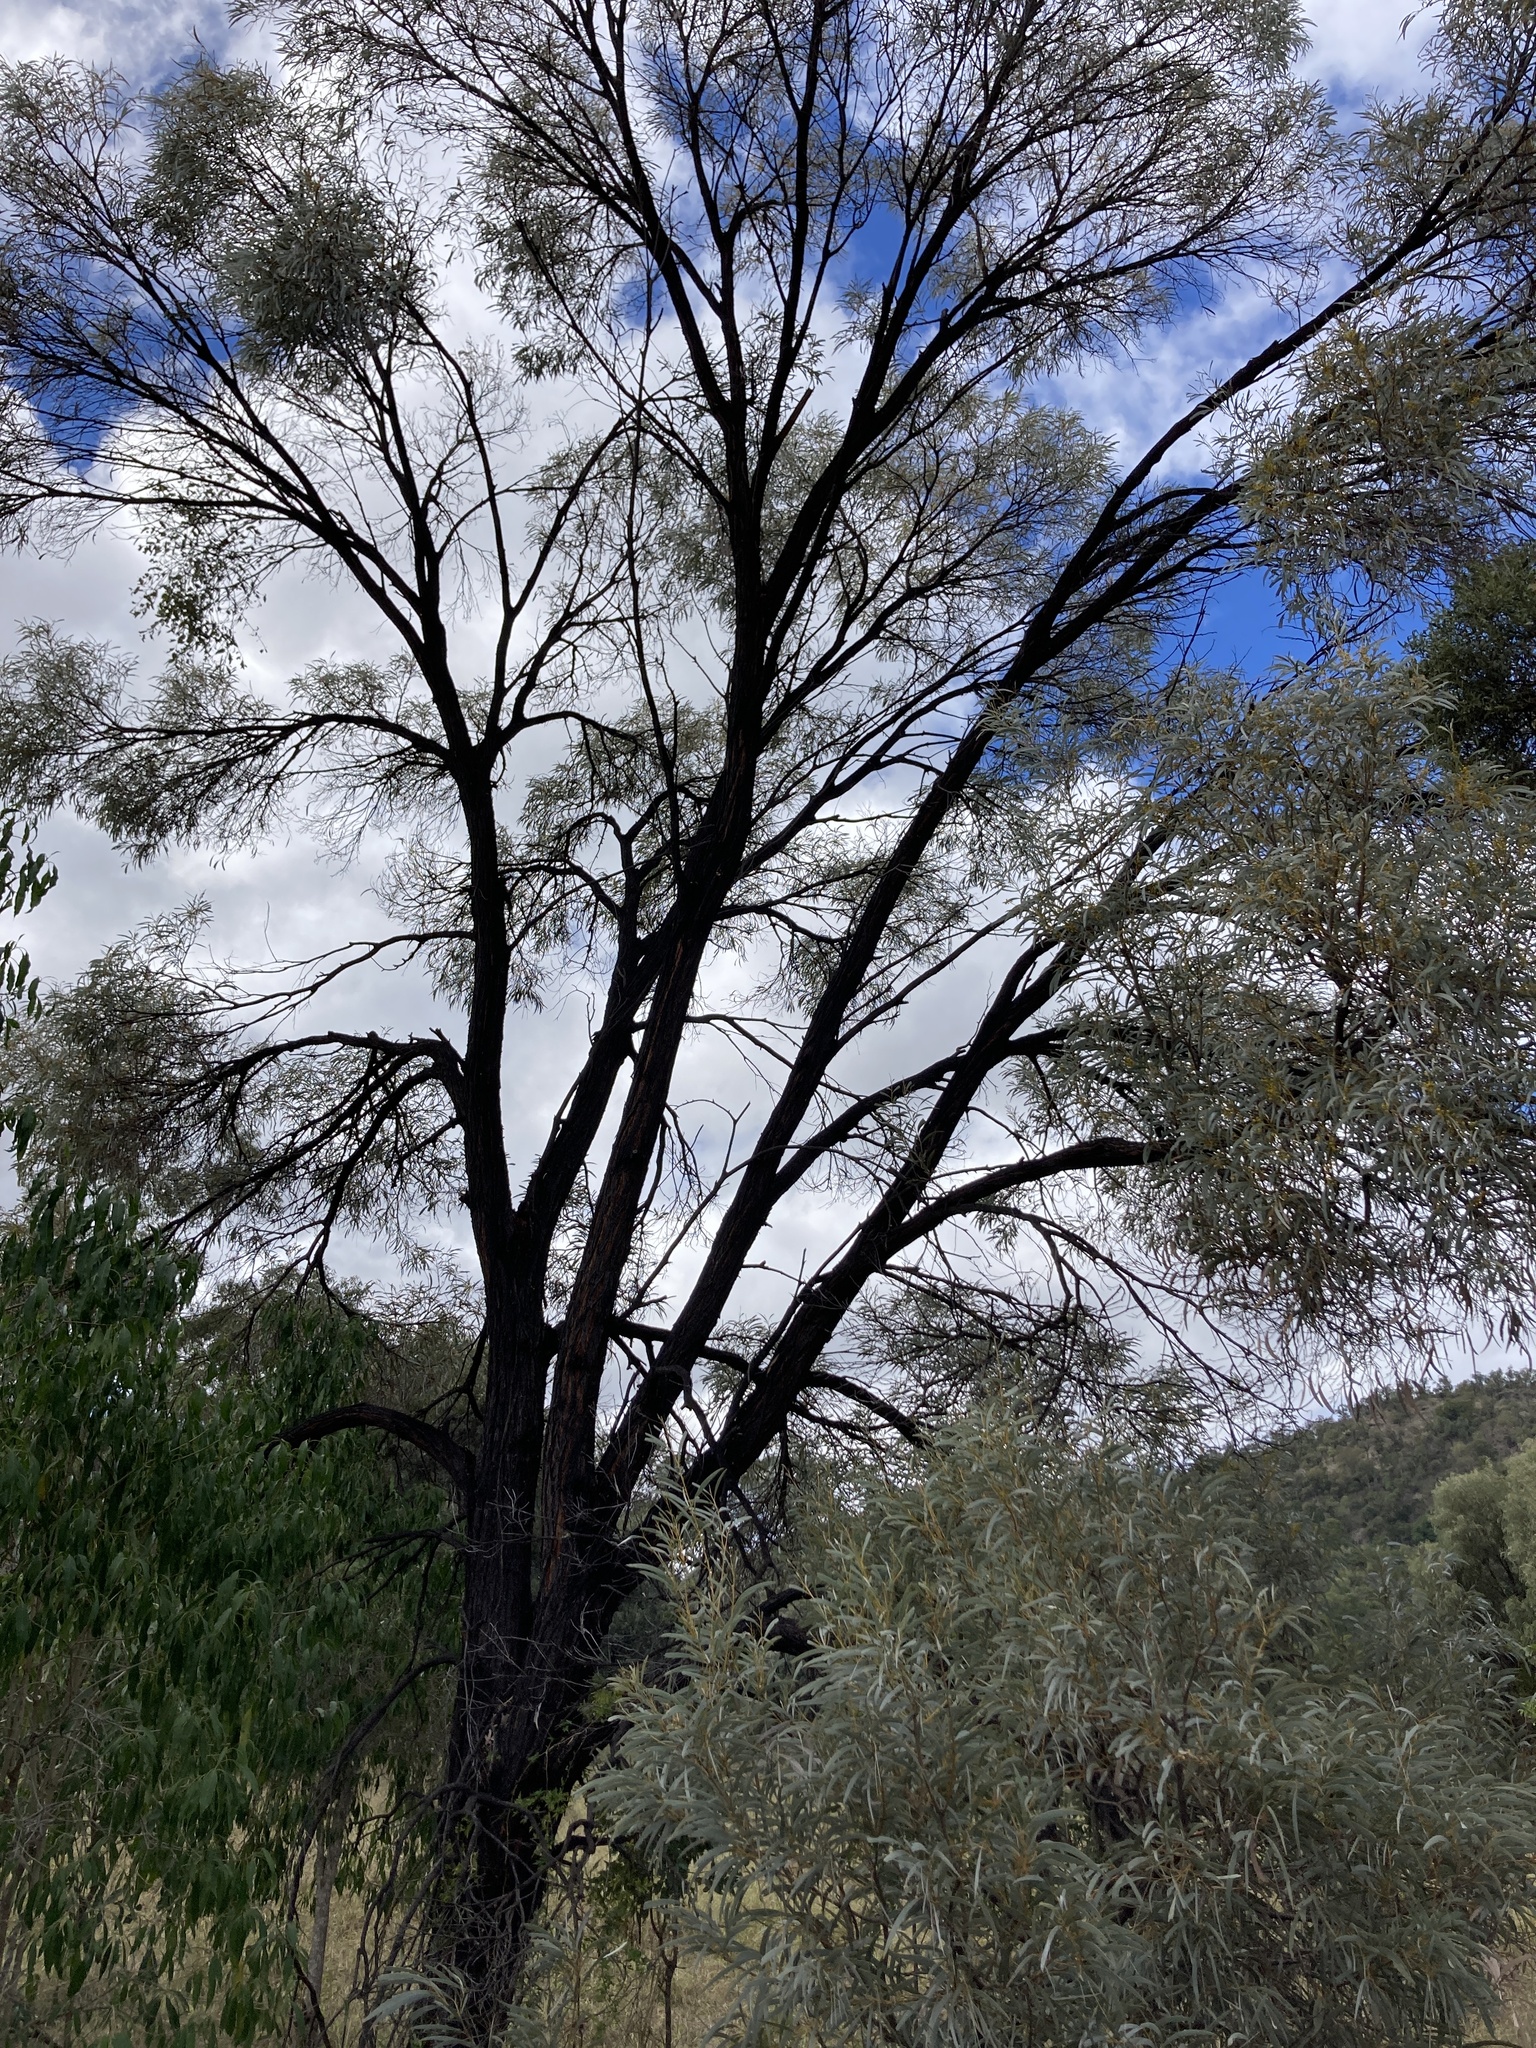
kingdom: Plantae
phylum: Tracheophyta
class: Magnoliopsida
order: Fabales
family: Fabaceae
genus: Acacia
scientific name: Acacia harpophylla
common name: Brigalow
